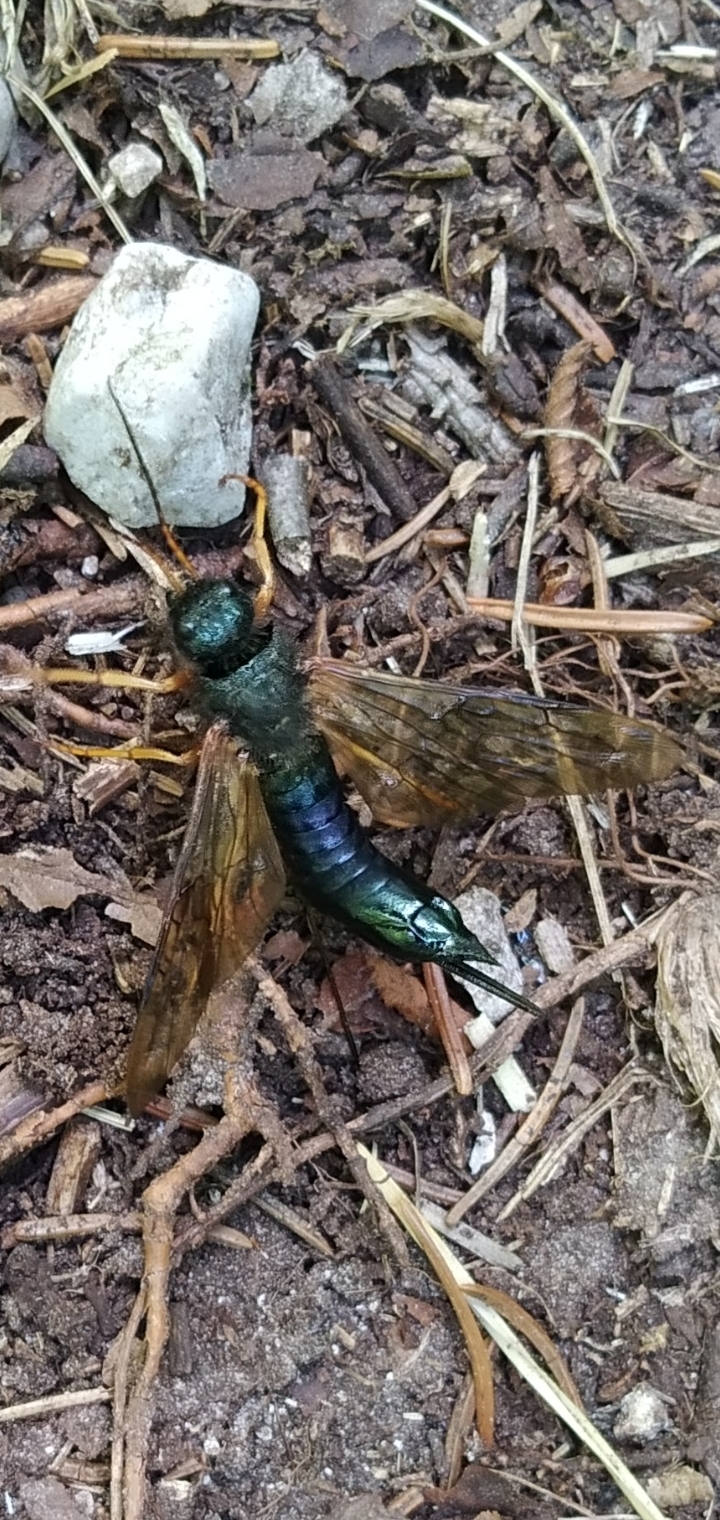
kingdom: Animalia
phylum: Arthropoda
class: Insecta
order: Hymenoptera
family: Siricidae
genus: Sirex
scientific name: Sirex juvencus
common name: Blue horntail
